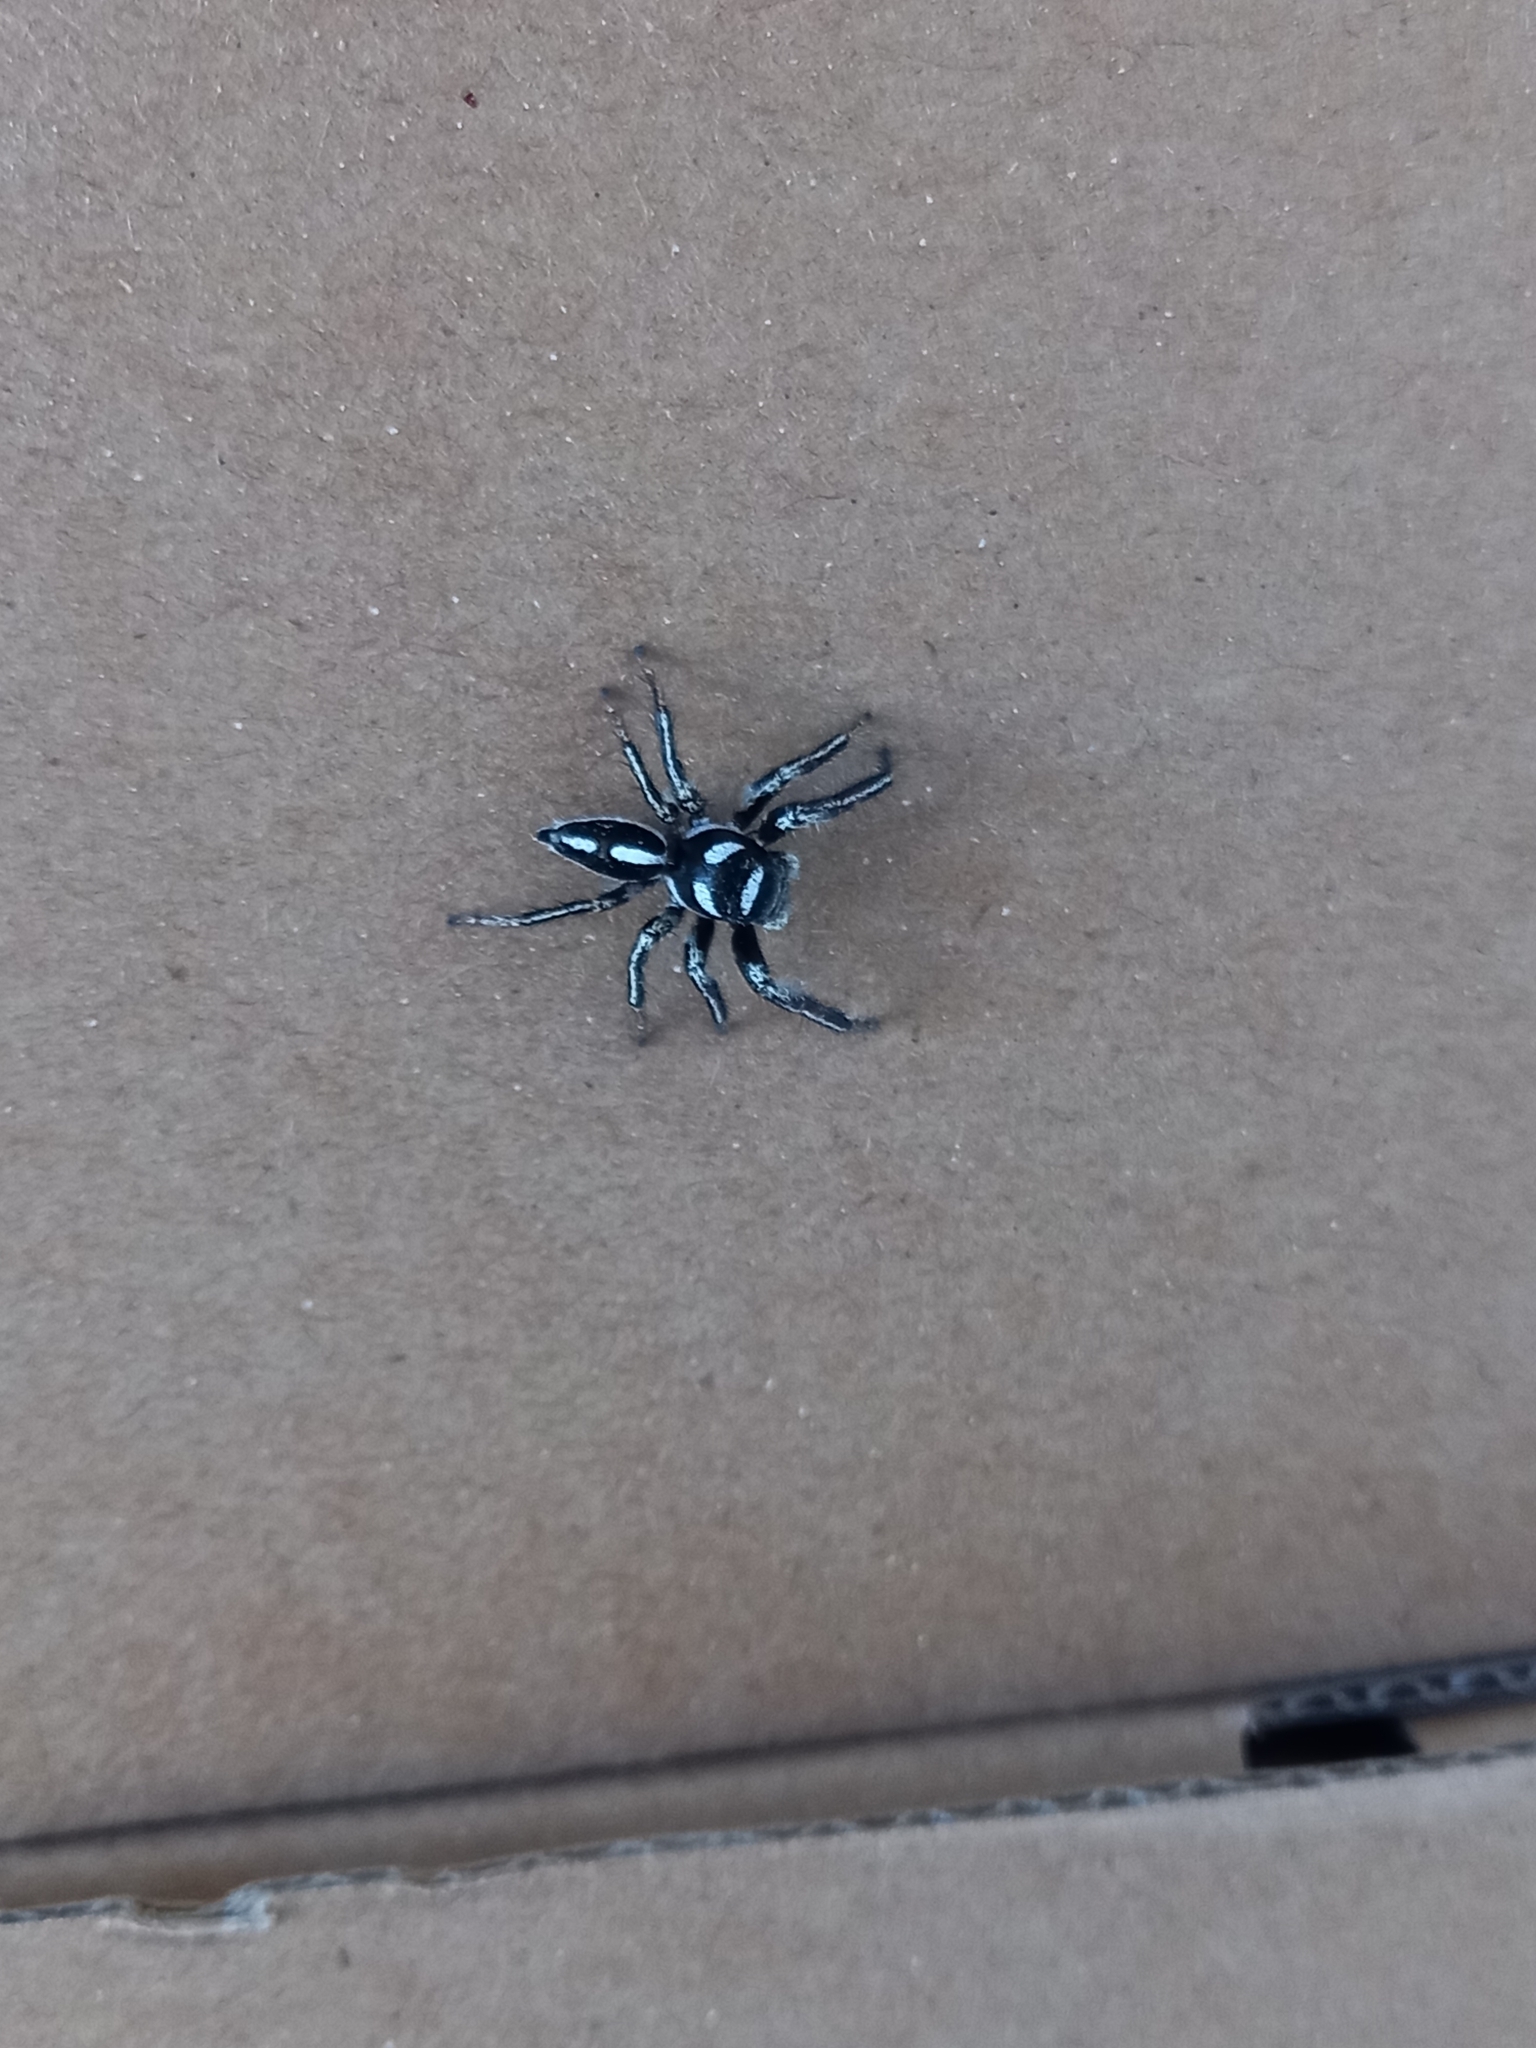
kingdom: Animalia
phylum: Arthropoda
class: Arachnida
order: Araneae
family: Salticidae
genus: Hyllus
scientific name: Hyllus argyrotoxus
